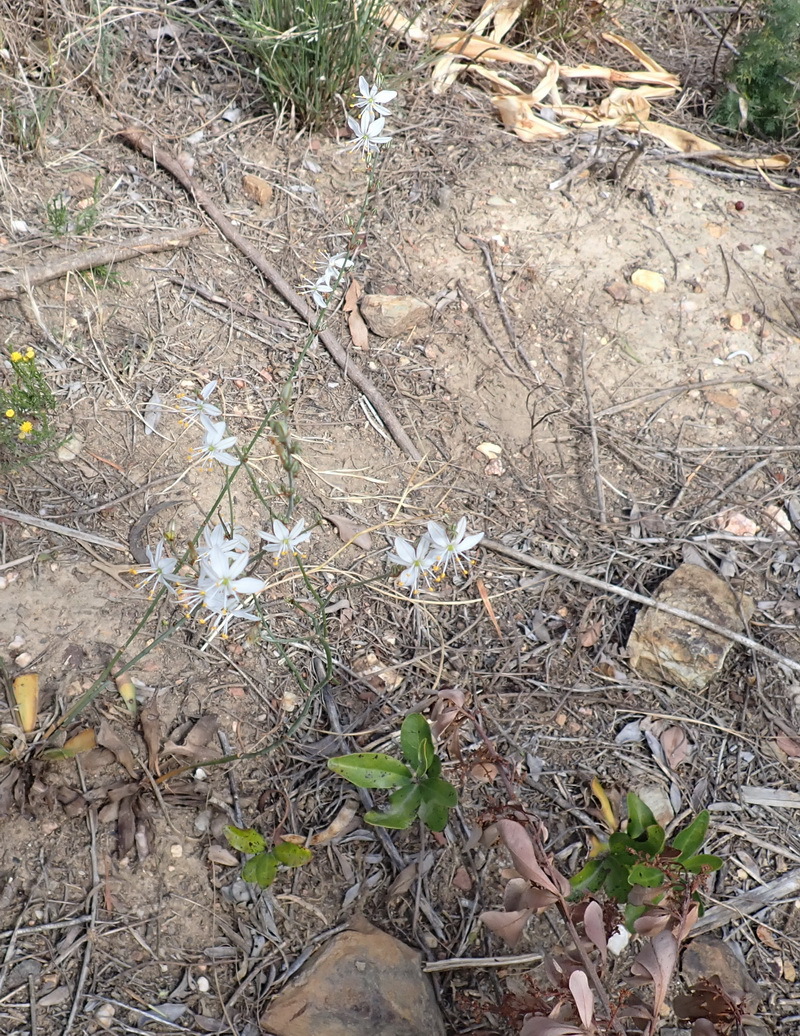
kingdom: Plantae
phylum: Tracheophyta
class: Liliopsida
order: Asparagales
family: Asparagaceae
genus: Chlorophytum
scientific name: Chlorophytum crispum
